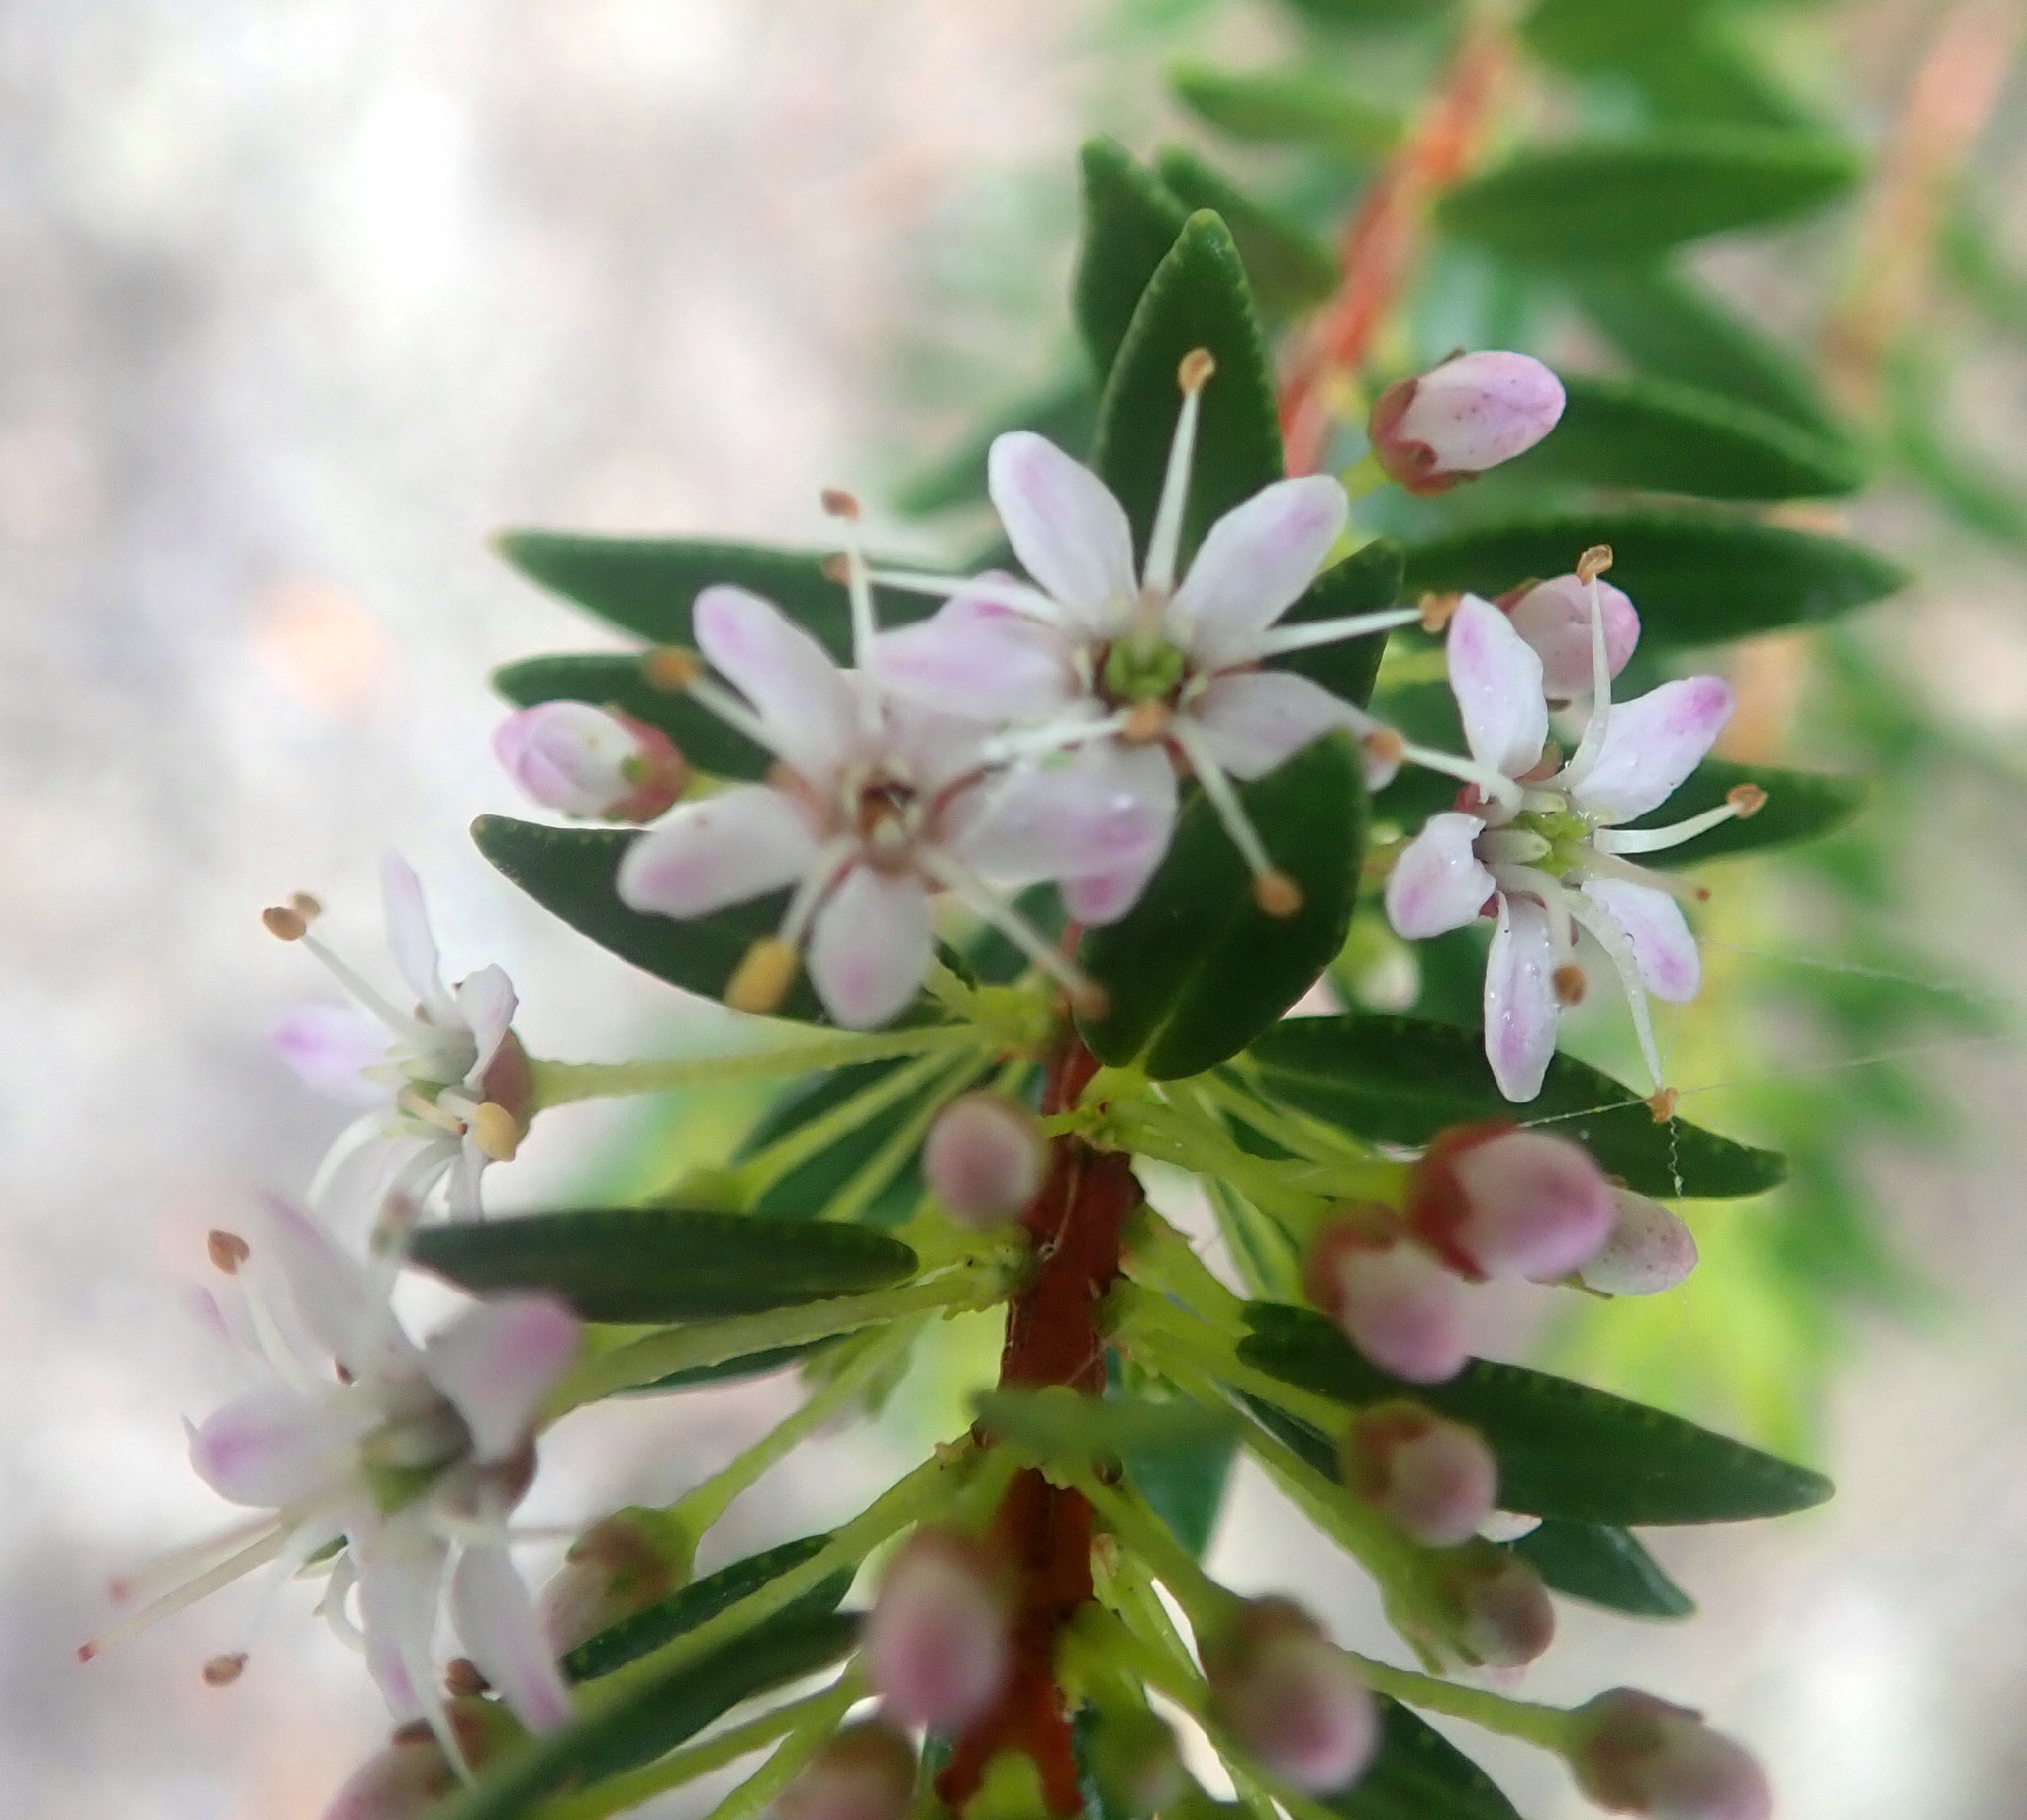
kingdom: Plantae
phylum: Tracheophyta
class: Magnoliopsida
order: Sapindales
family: Rutaceae
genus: Agathosma
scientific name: Agathosma ovata
